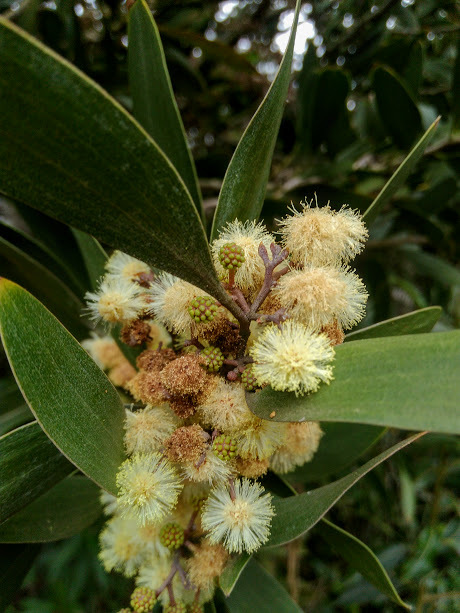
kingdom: Plantae
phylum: Tracheophyta
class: Magnoliopsida
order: Fabales
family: Fabaceae
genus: Acacia
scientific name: Acacia melanoxylon
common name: Blackwood
